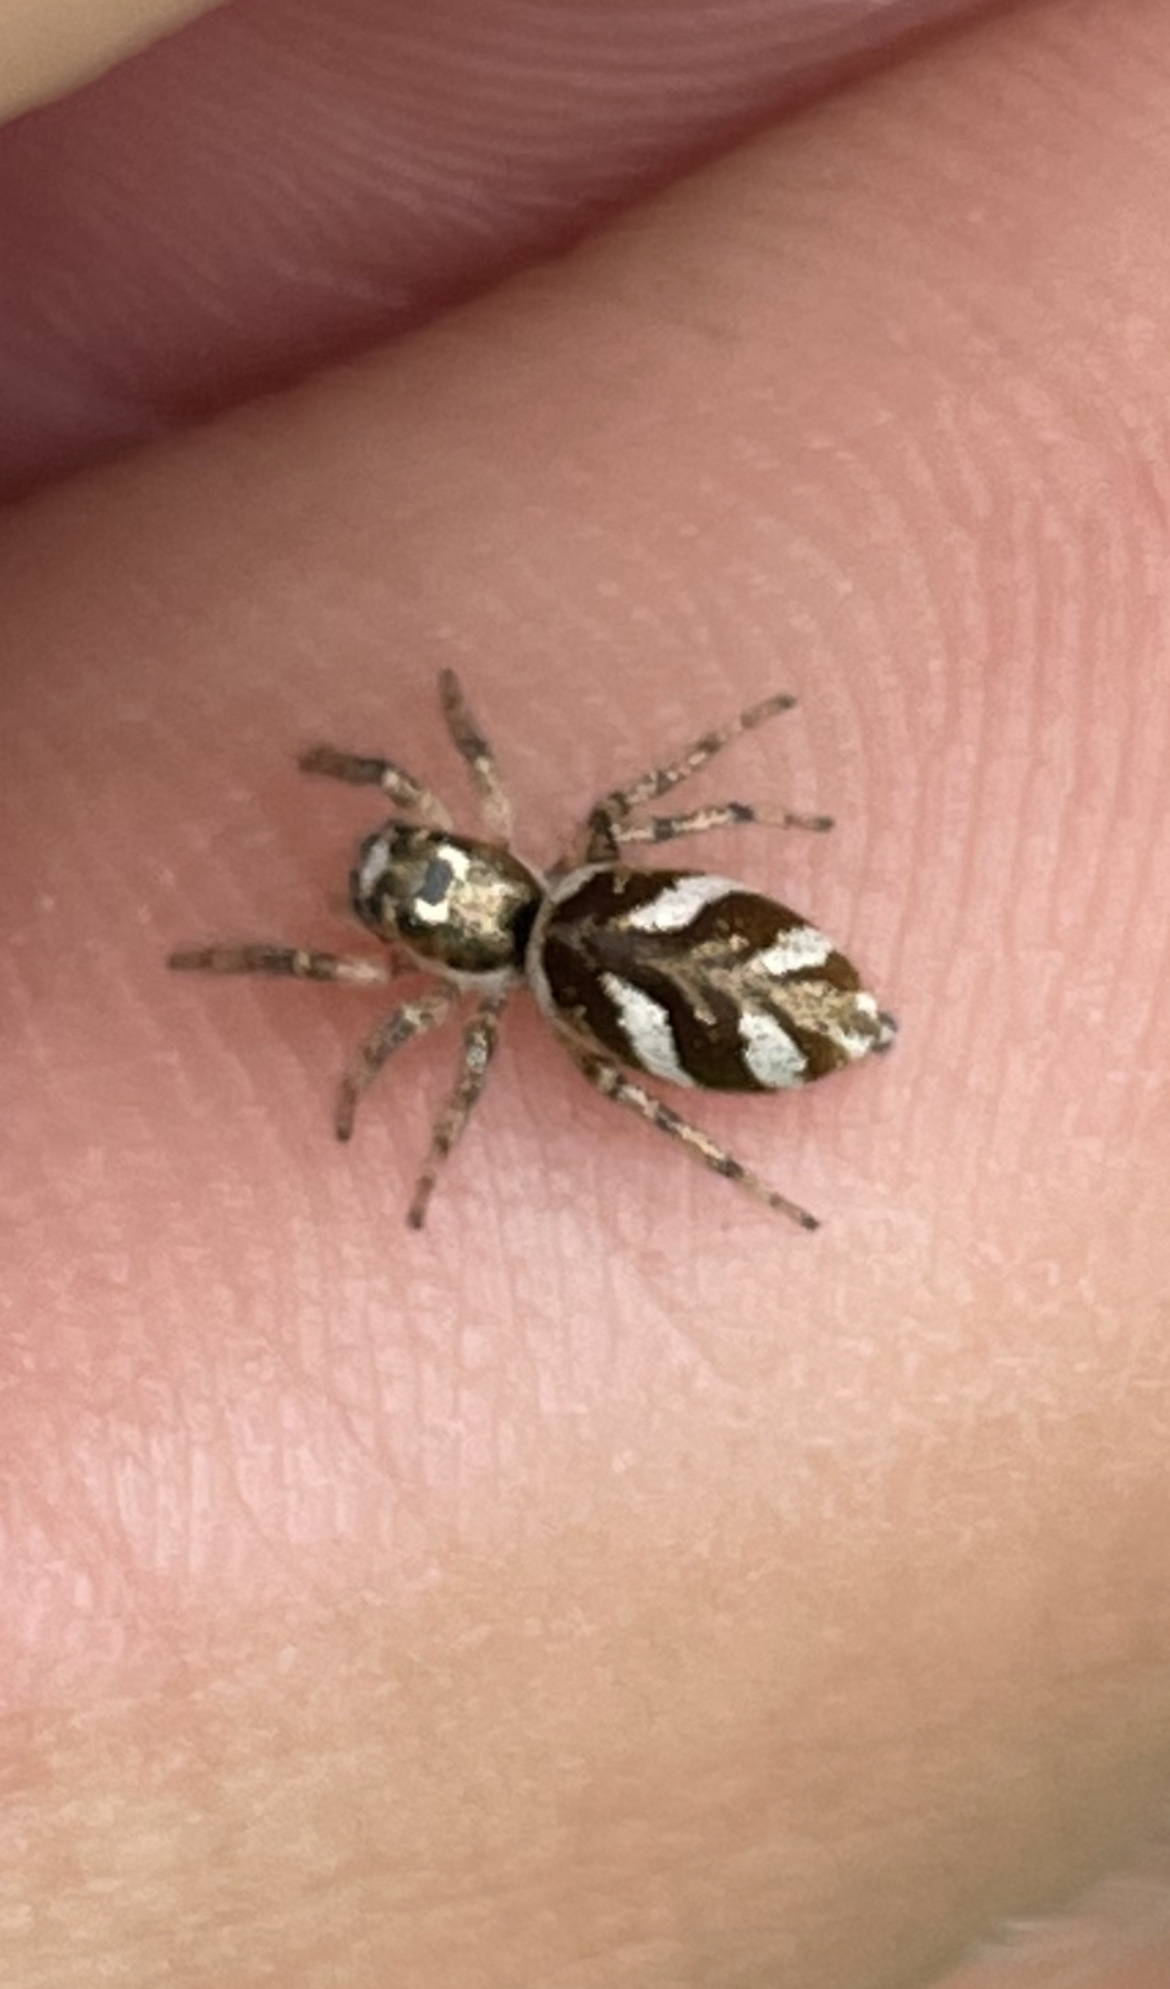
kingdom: Animalia
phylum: Arthropoda
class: Arachnida
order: Araneae
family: Salticidae
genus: Salticus
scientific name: Salticus scenicus
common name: Zebra jumper
